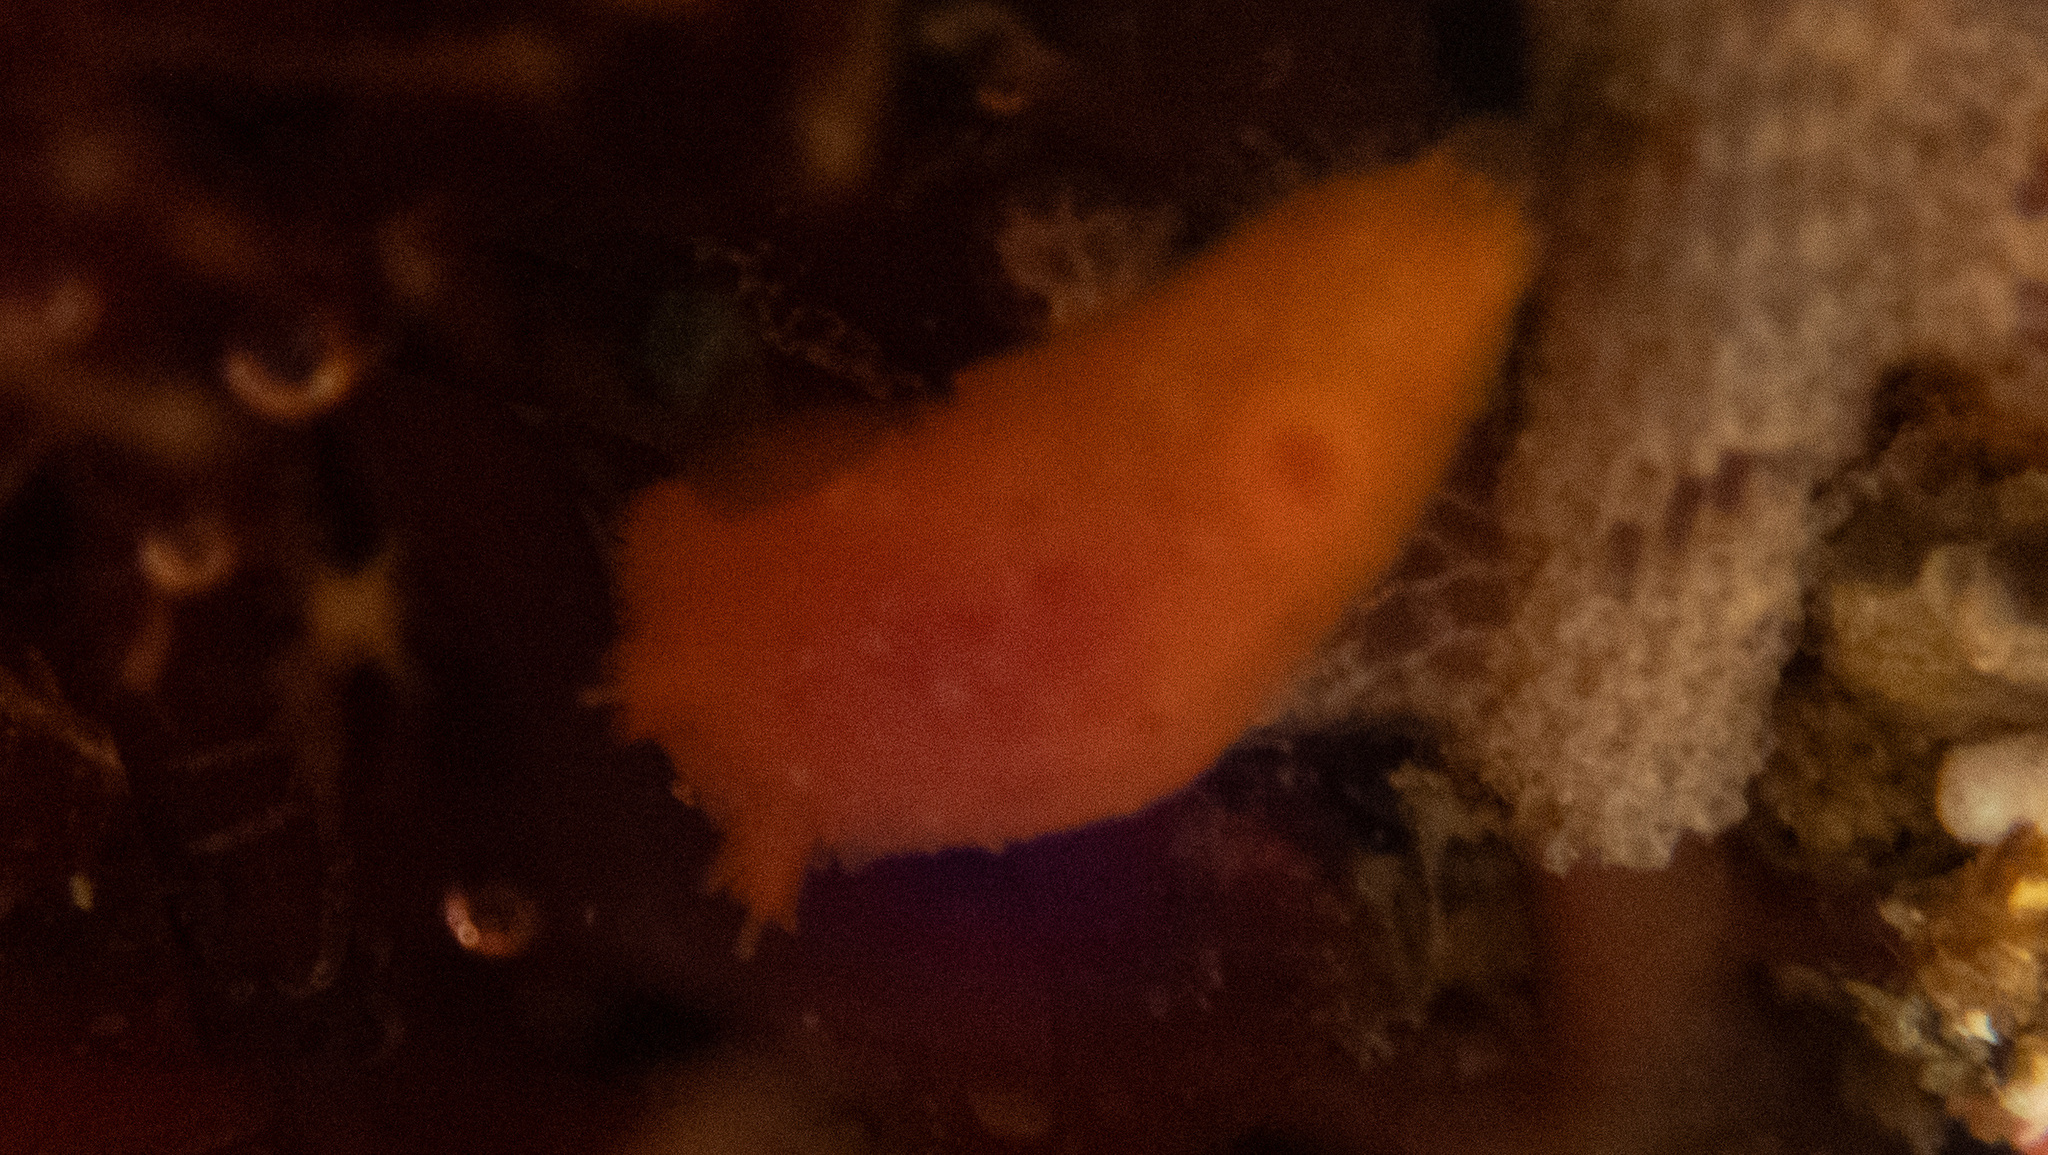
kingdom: Animalia
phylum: Mollusca
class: Gastropoda
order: Nudibranchia
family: Discodorididae
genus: Rostanga
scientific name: Rostanga pulchra
